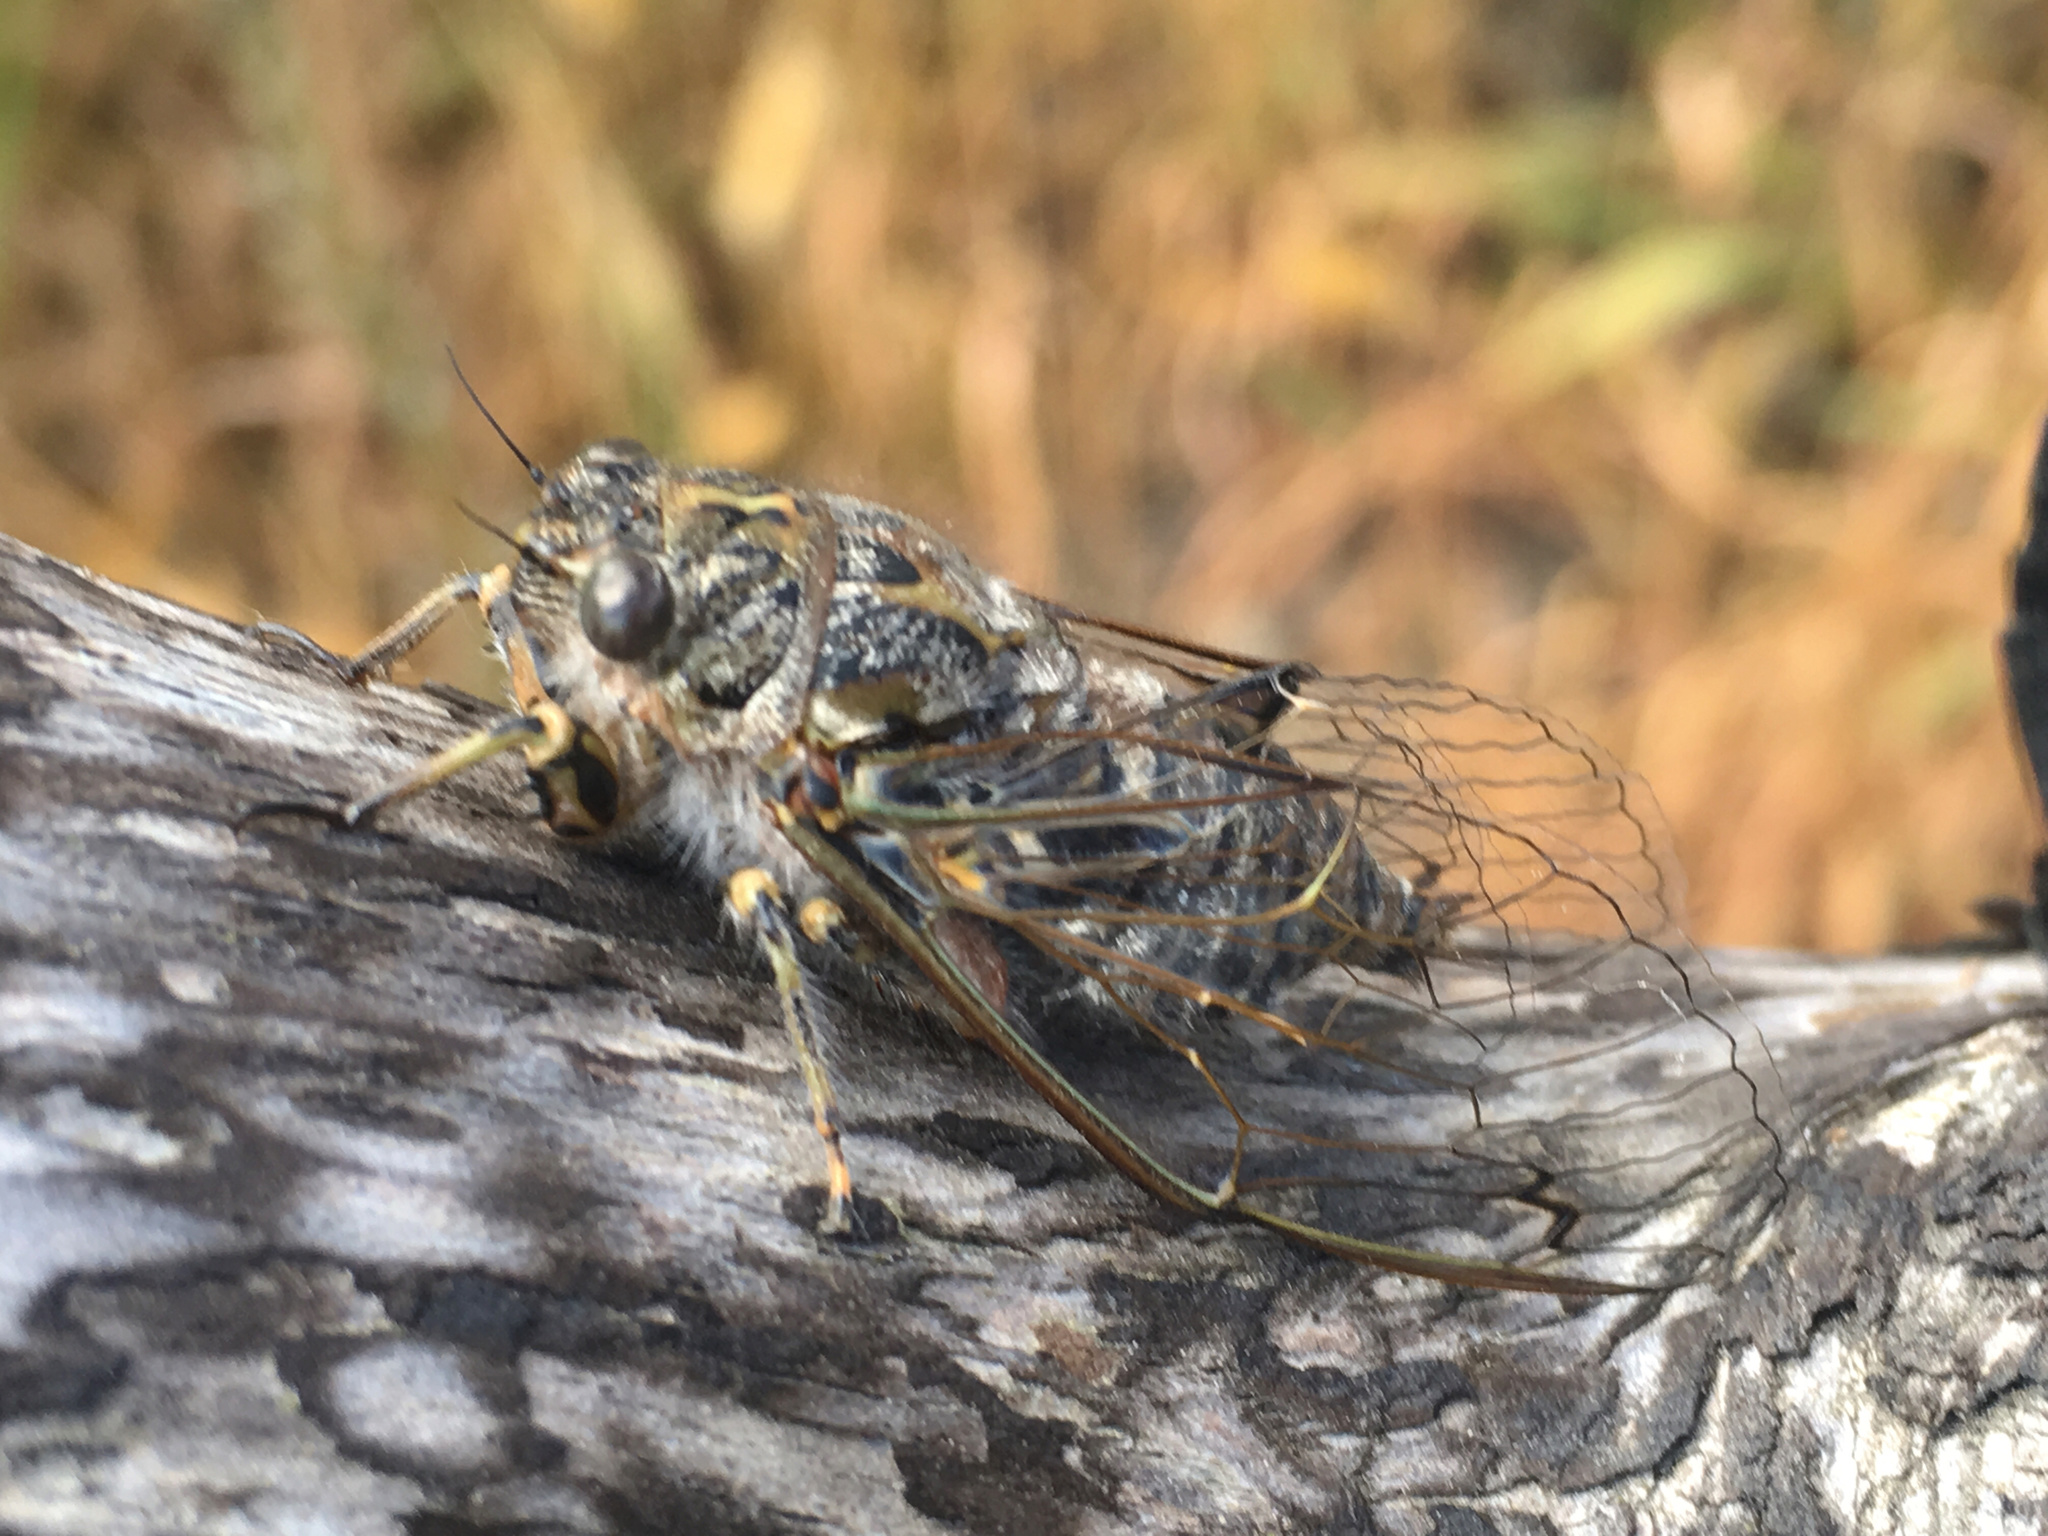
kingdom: Animalia
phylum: Arthropoda
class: Insecta
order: Hemiptera
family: Cicadidae
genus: Amphipsalta
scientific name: Amphipsalta strepitans
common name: Chirping cicada
